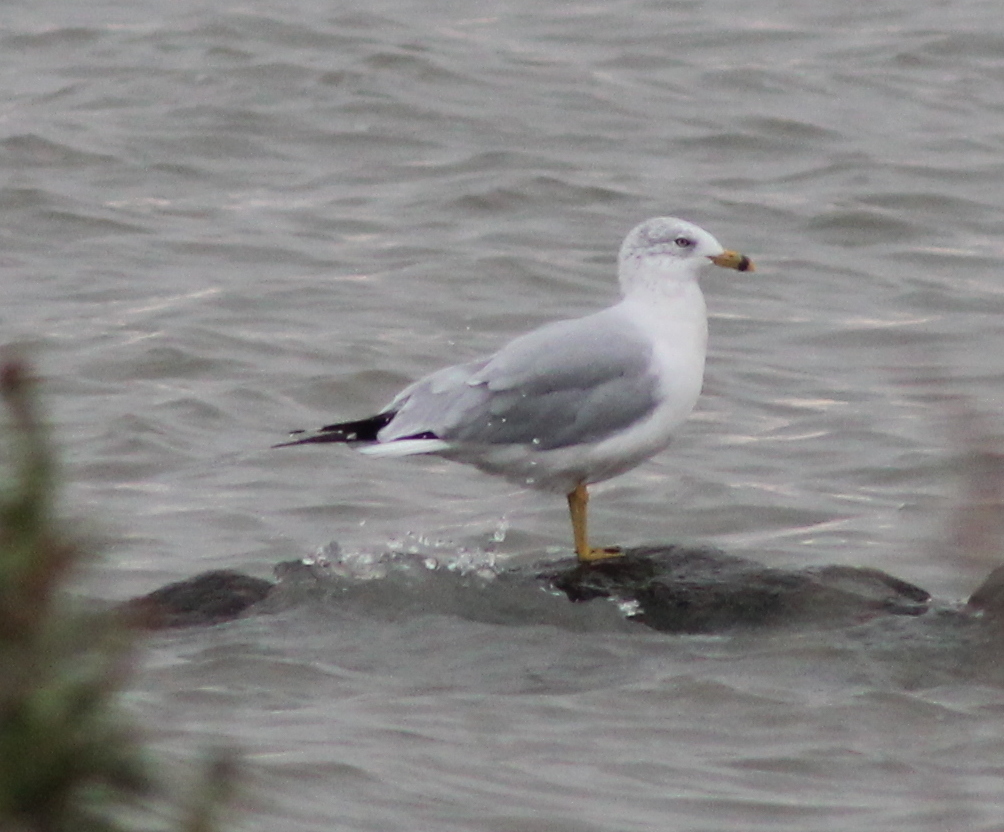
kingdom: Animalia
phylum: Chordata
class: Aves
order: Charadriiformes
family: Laridae
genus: Larus
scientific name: Larus delawarensis
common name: Ring-billed gull
